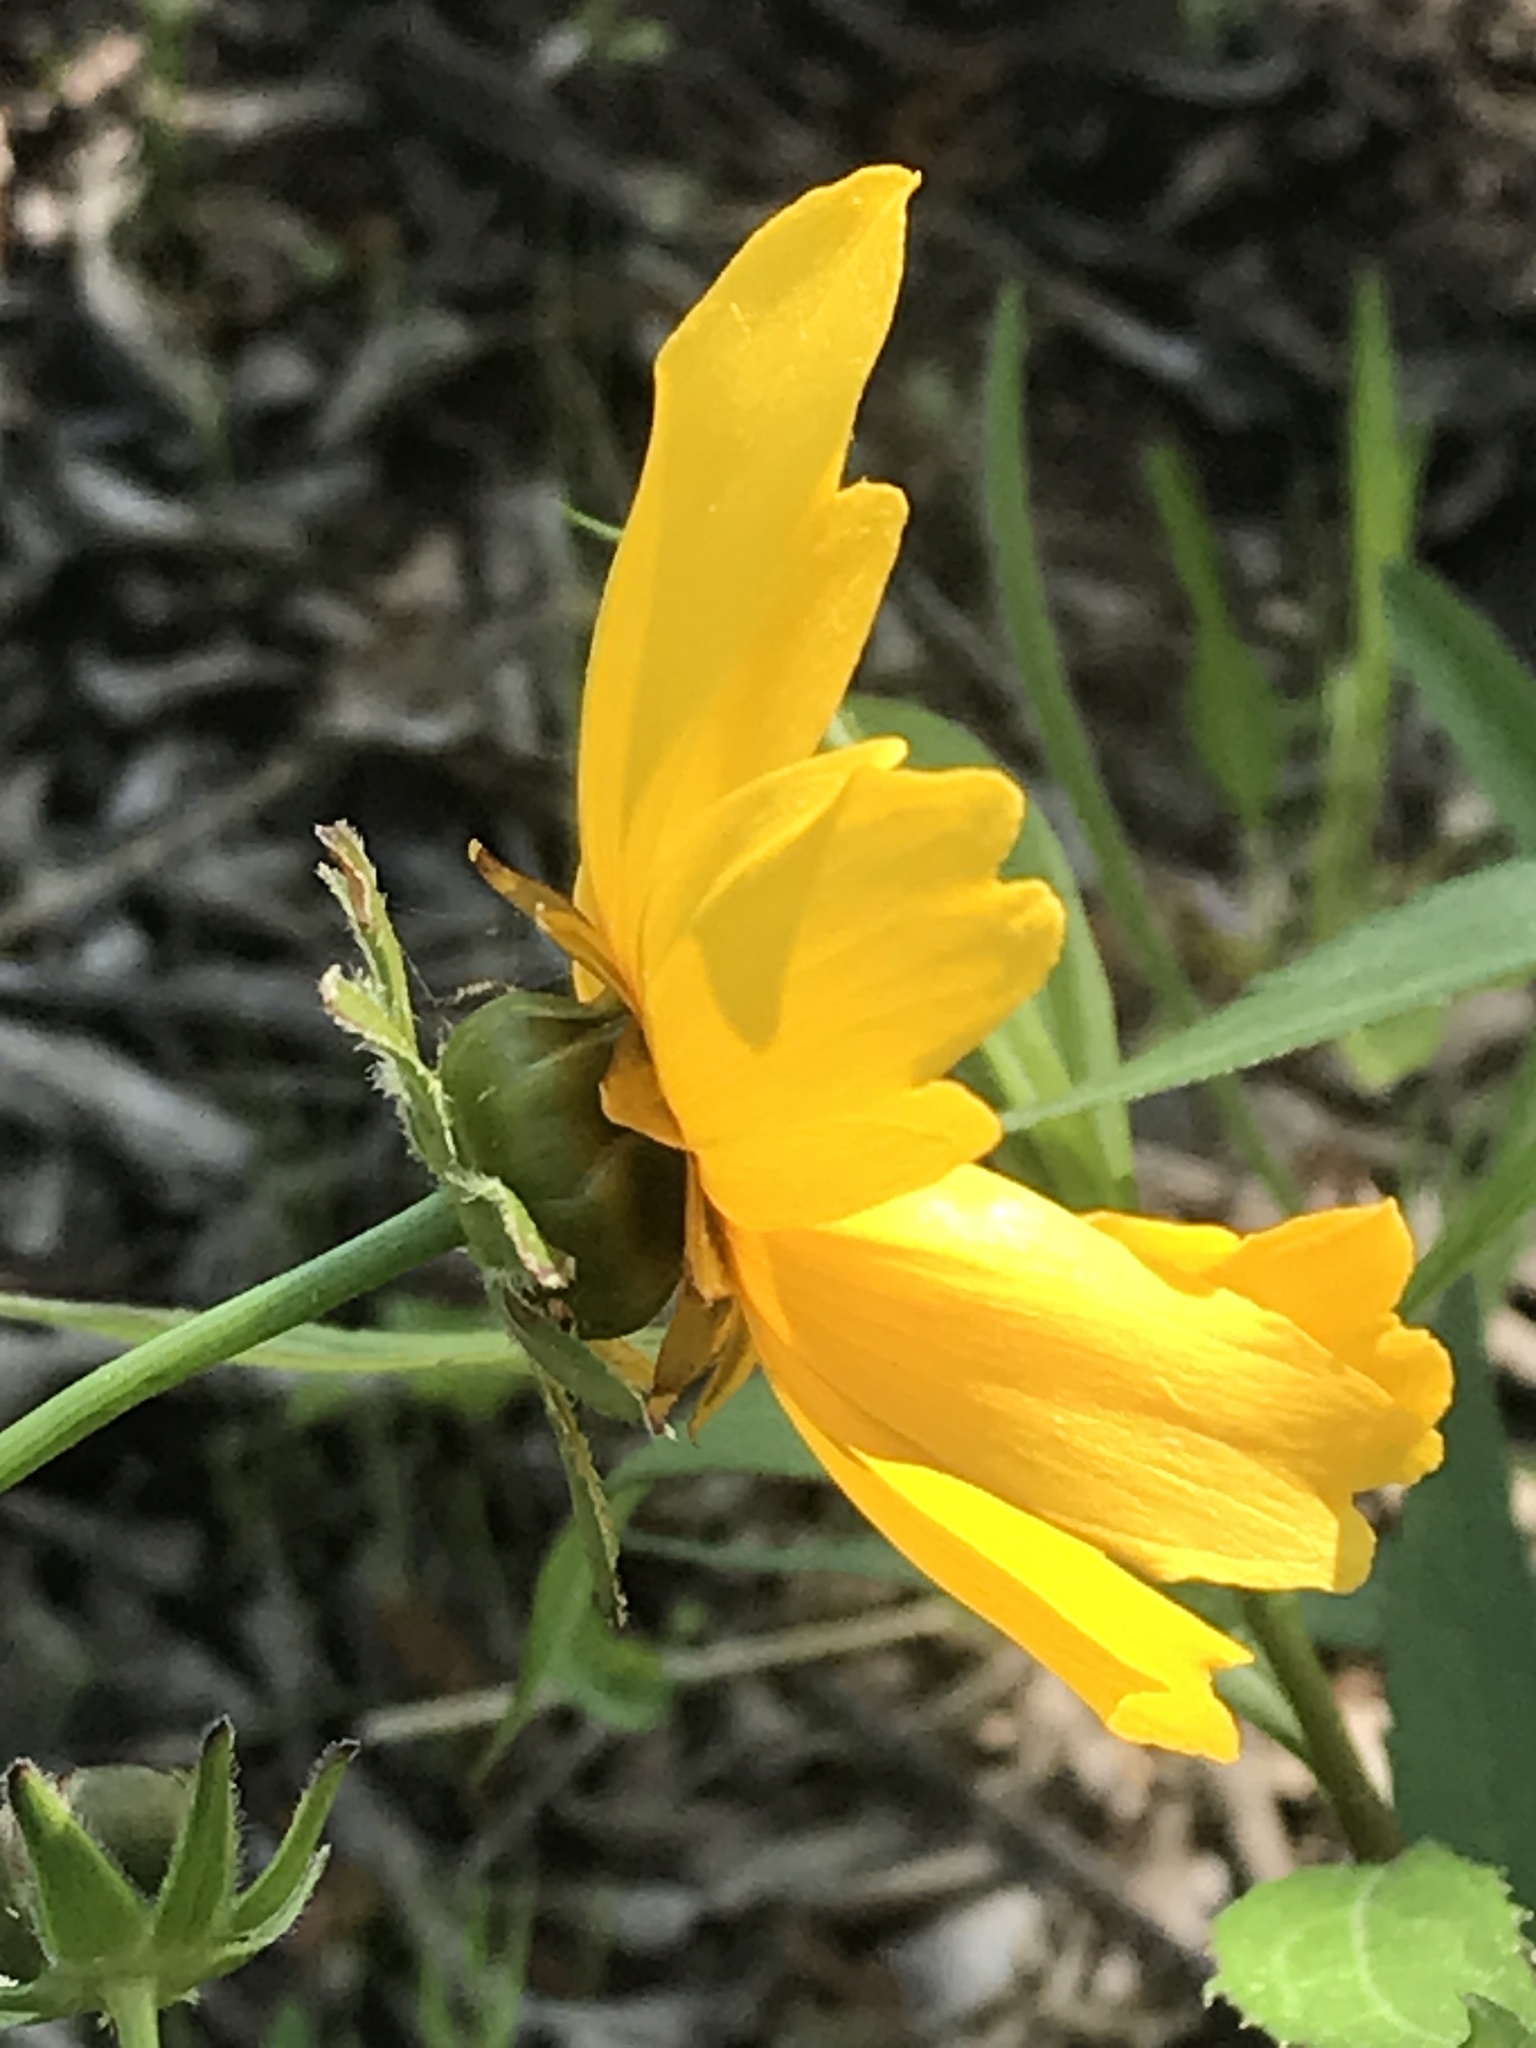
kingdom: Plantae
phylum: Tracheophyta
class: Magnoliopsida
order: Asterales
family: Asteraceae
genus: Coreopsis
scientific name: Coreopsis lanceolata
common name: Garden coreopsis
